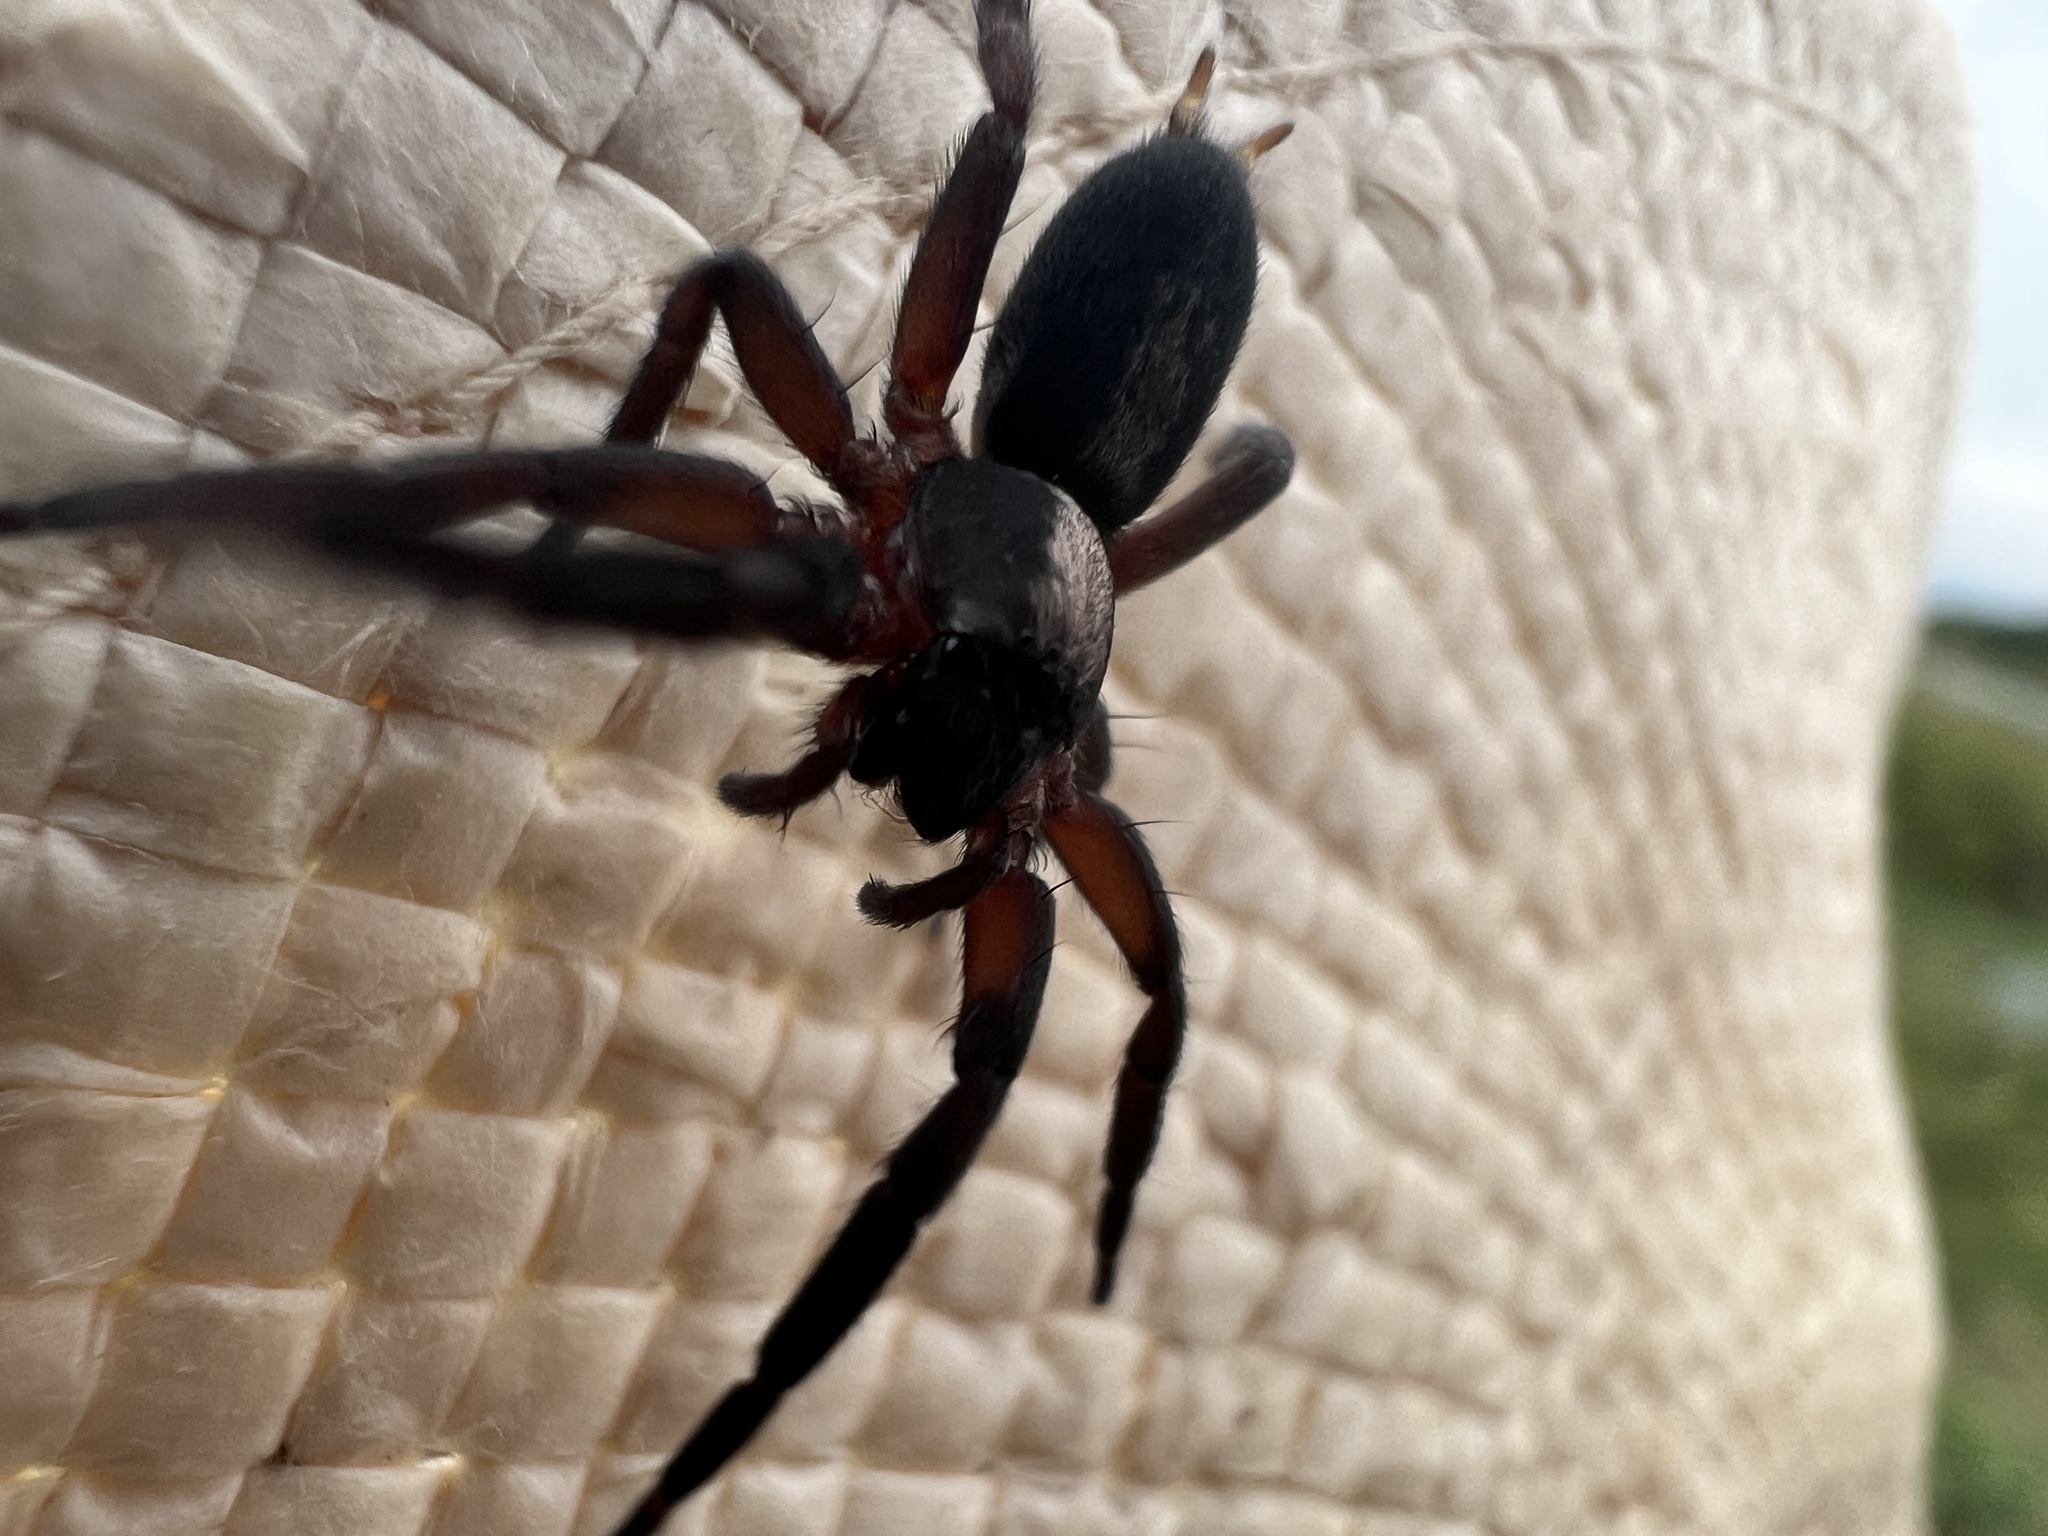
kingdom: Animalia
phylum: Arthropoda
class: Arachnida
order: Araneae
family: Miturgidae
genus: Teminius
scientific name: Teminius insularis
